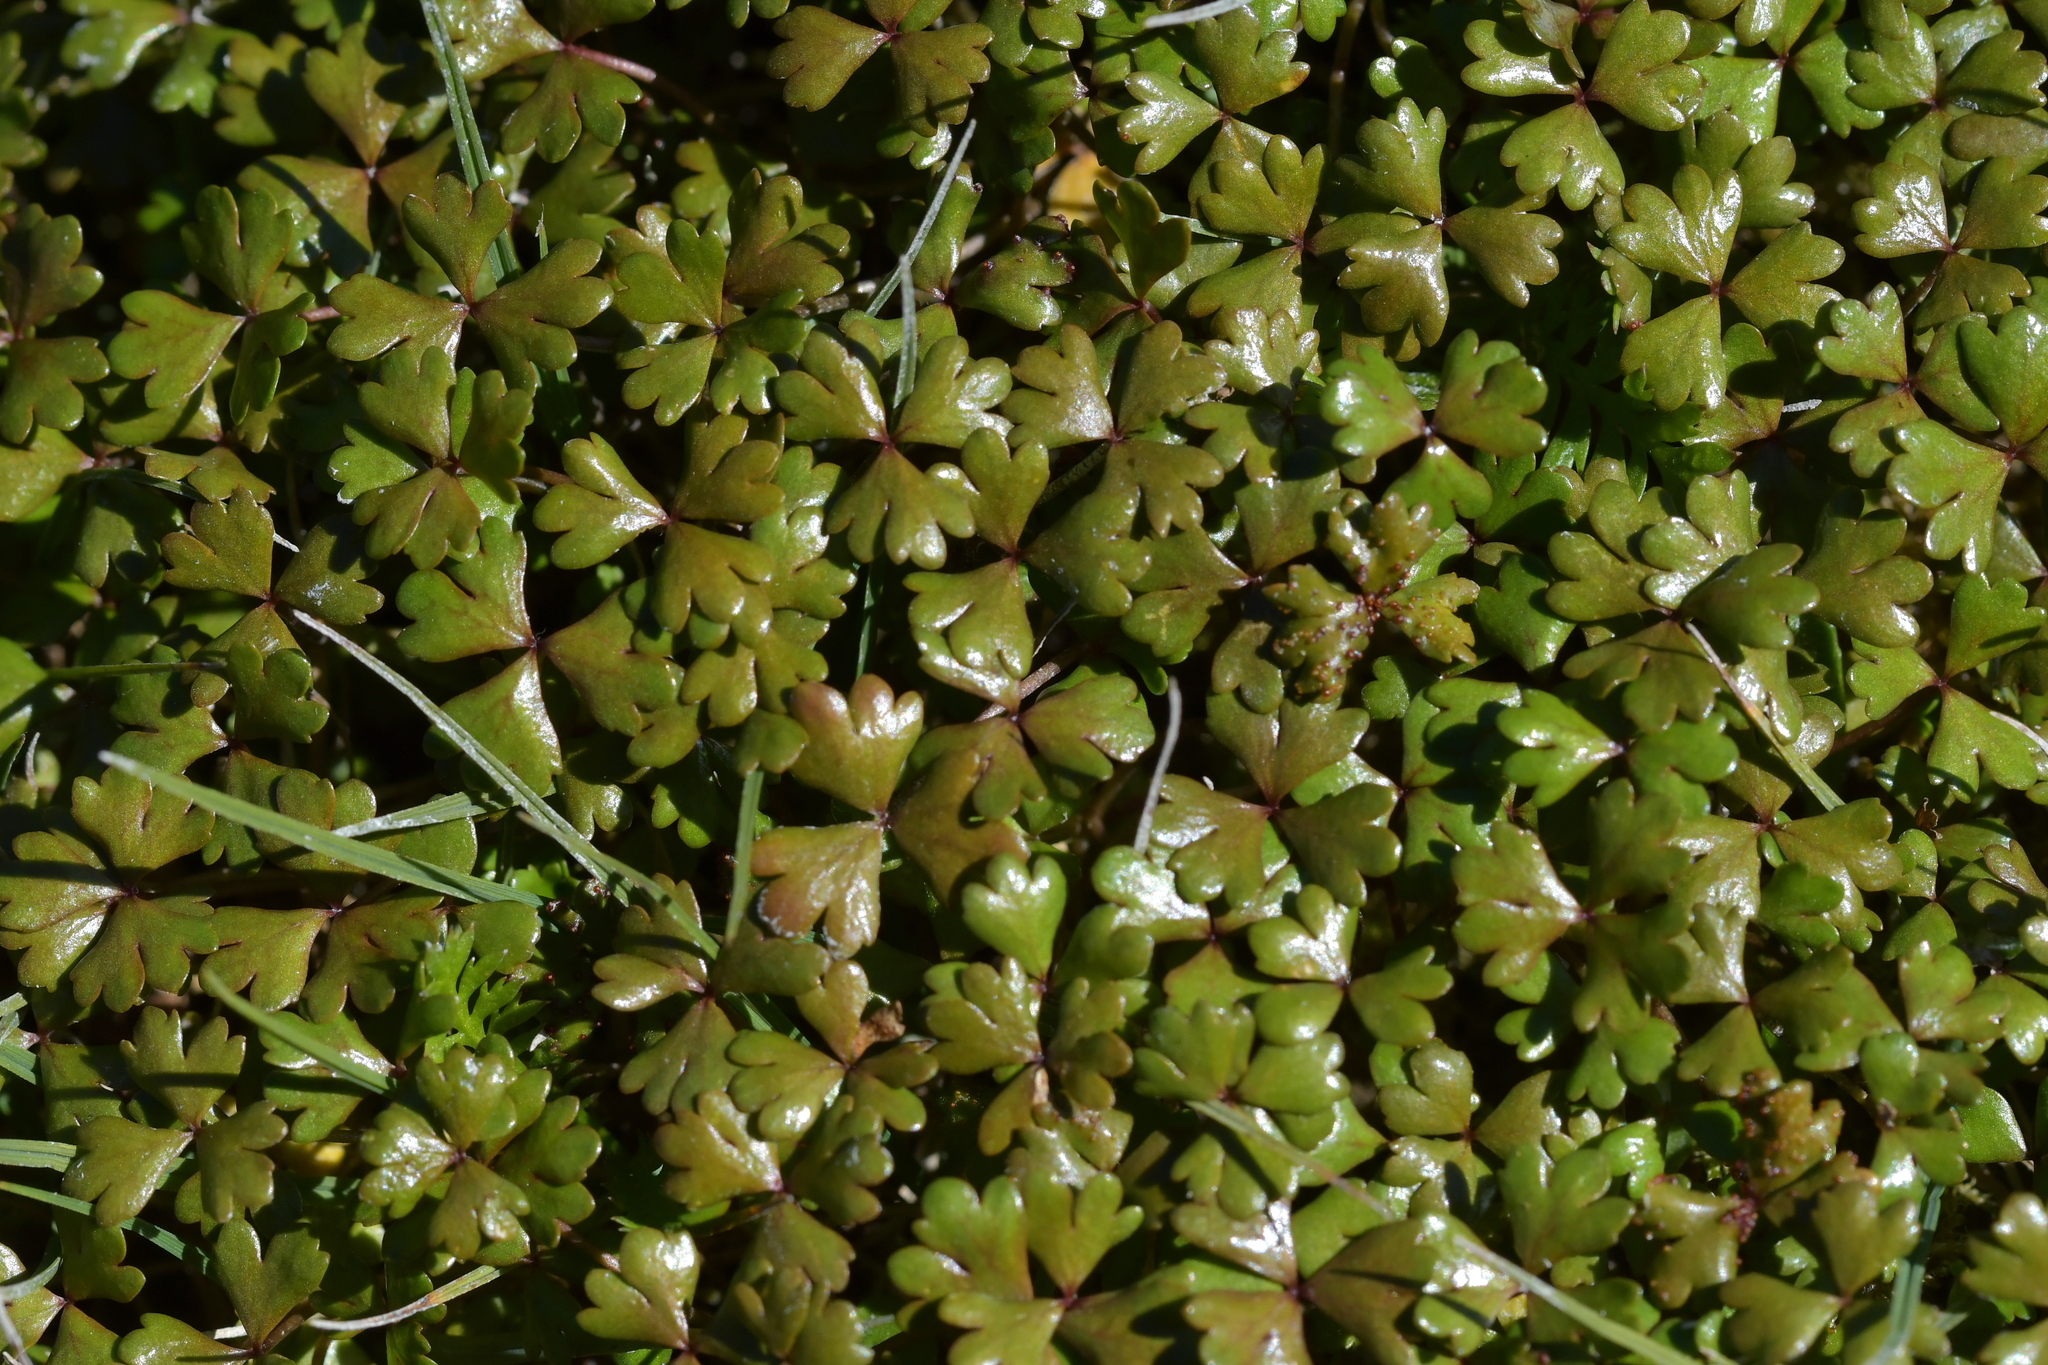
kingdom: Plantae
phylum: Tracheophyta
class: Magnoliopsida
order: Apiales
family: Araliaceae
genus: Hydrocotyle
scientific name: Hydrocotyle sulcata
